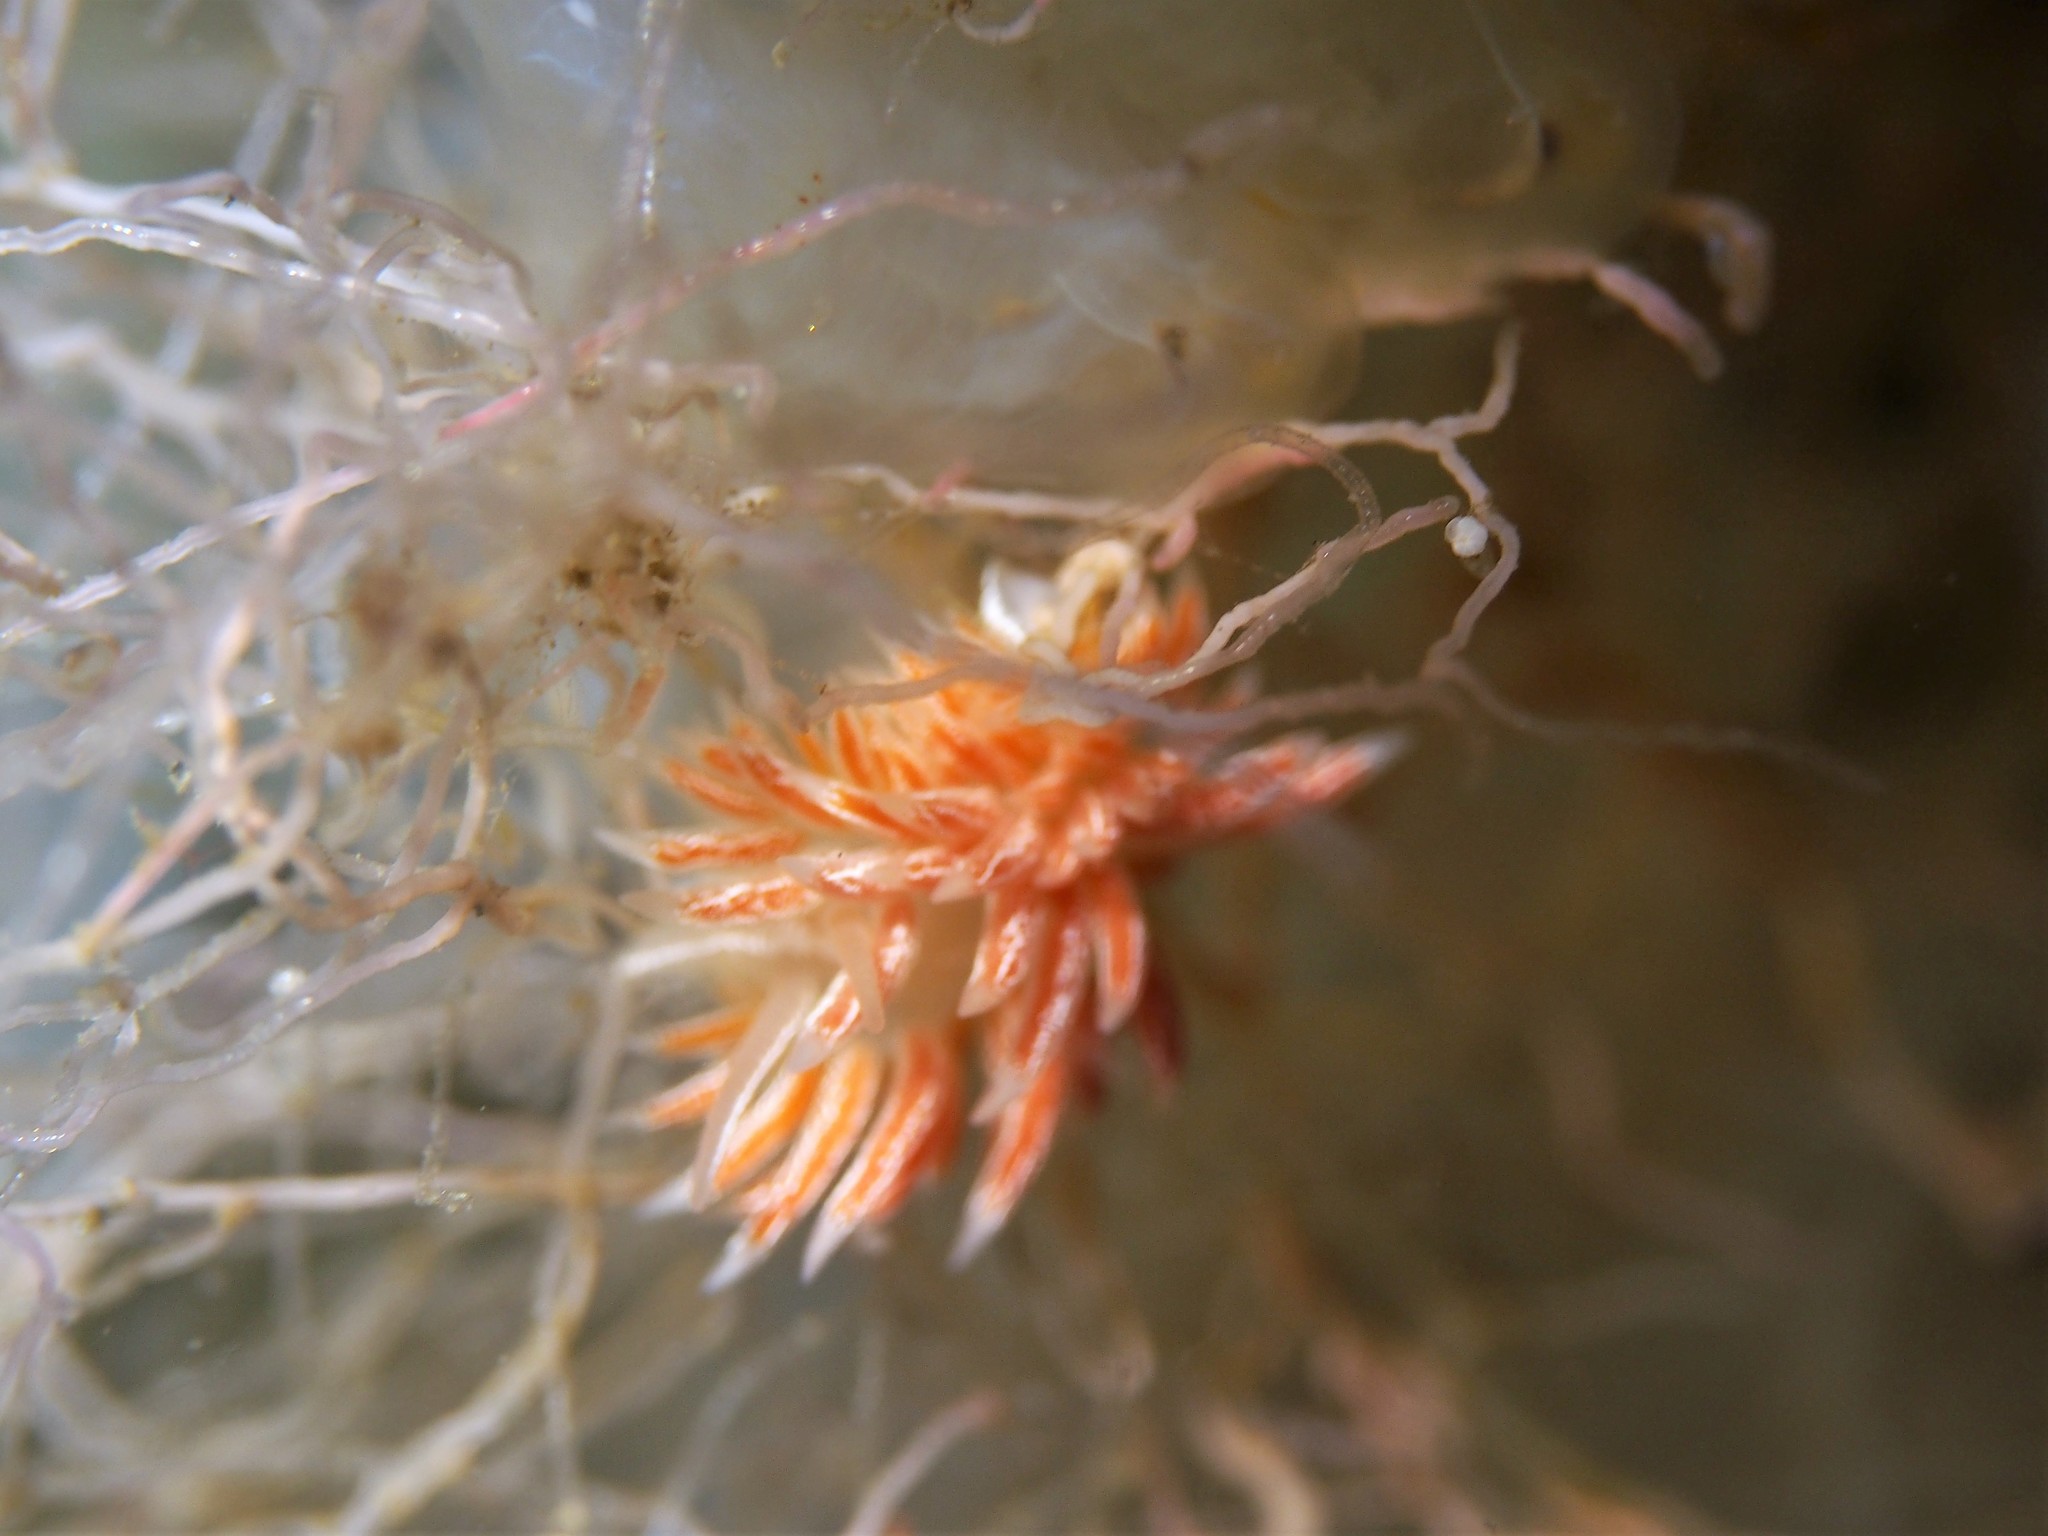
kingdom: Animalia
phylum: Mollusca
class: Gastropoda
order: Nudibranchia
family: Coryphellidae
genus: Coryphella
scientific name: Coryphella chriskaugei
